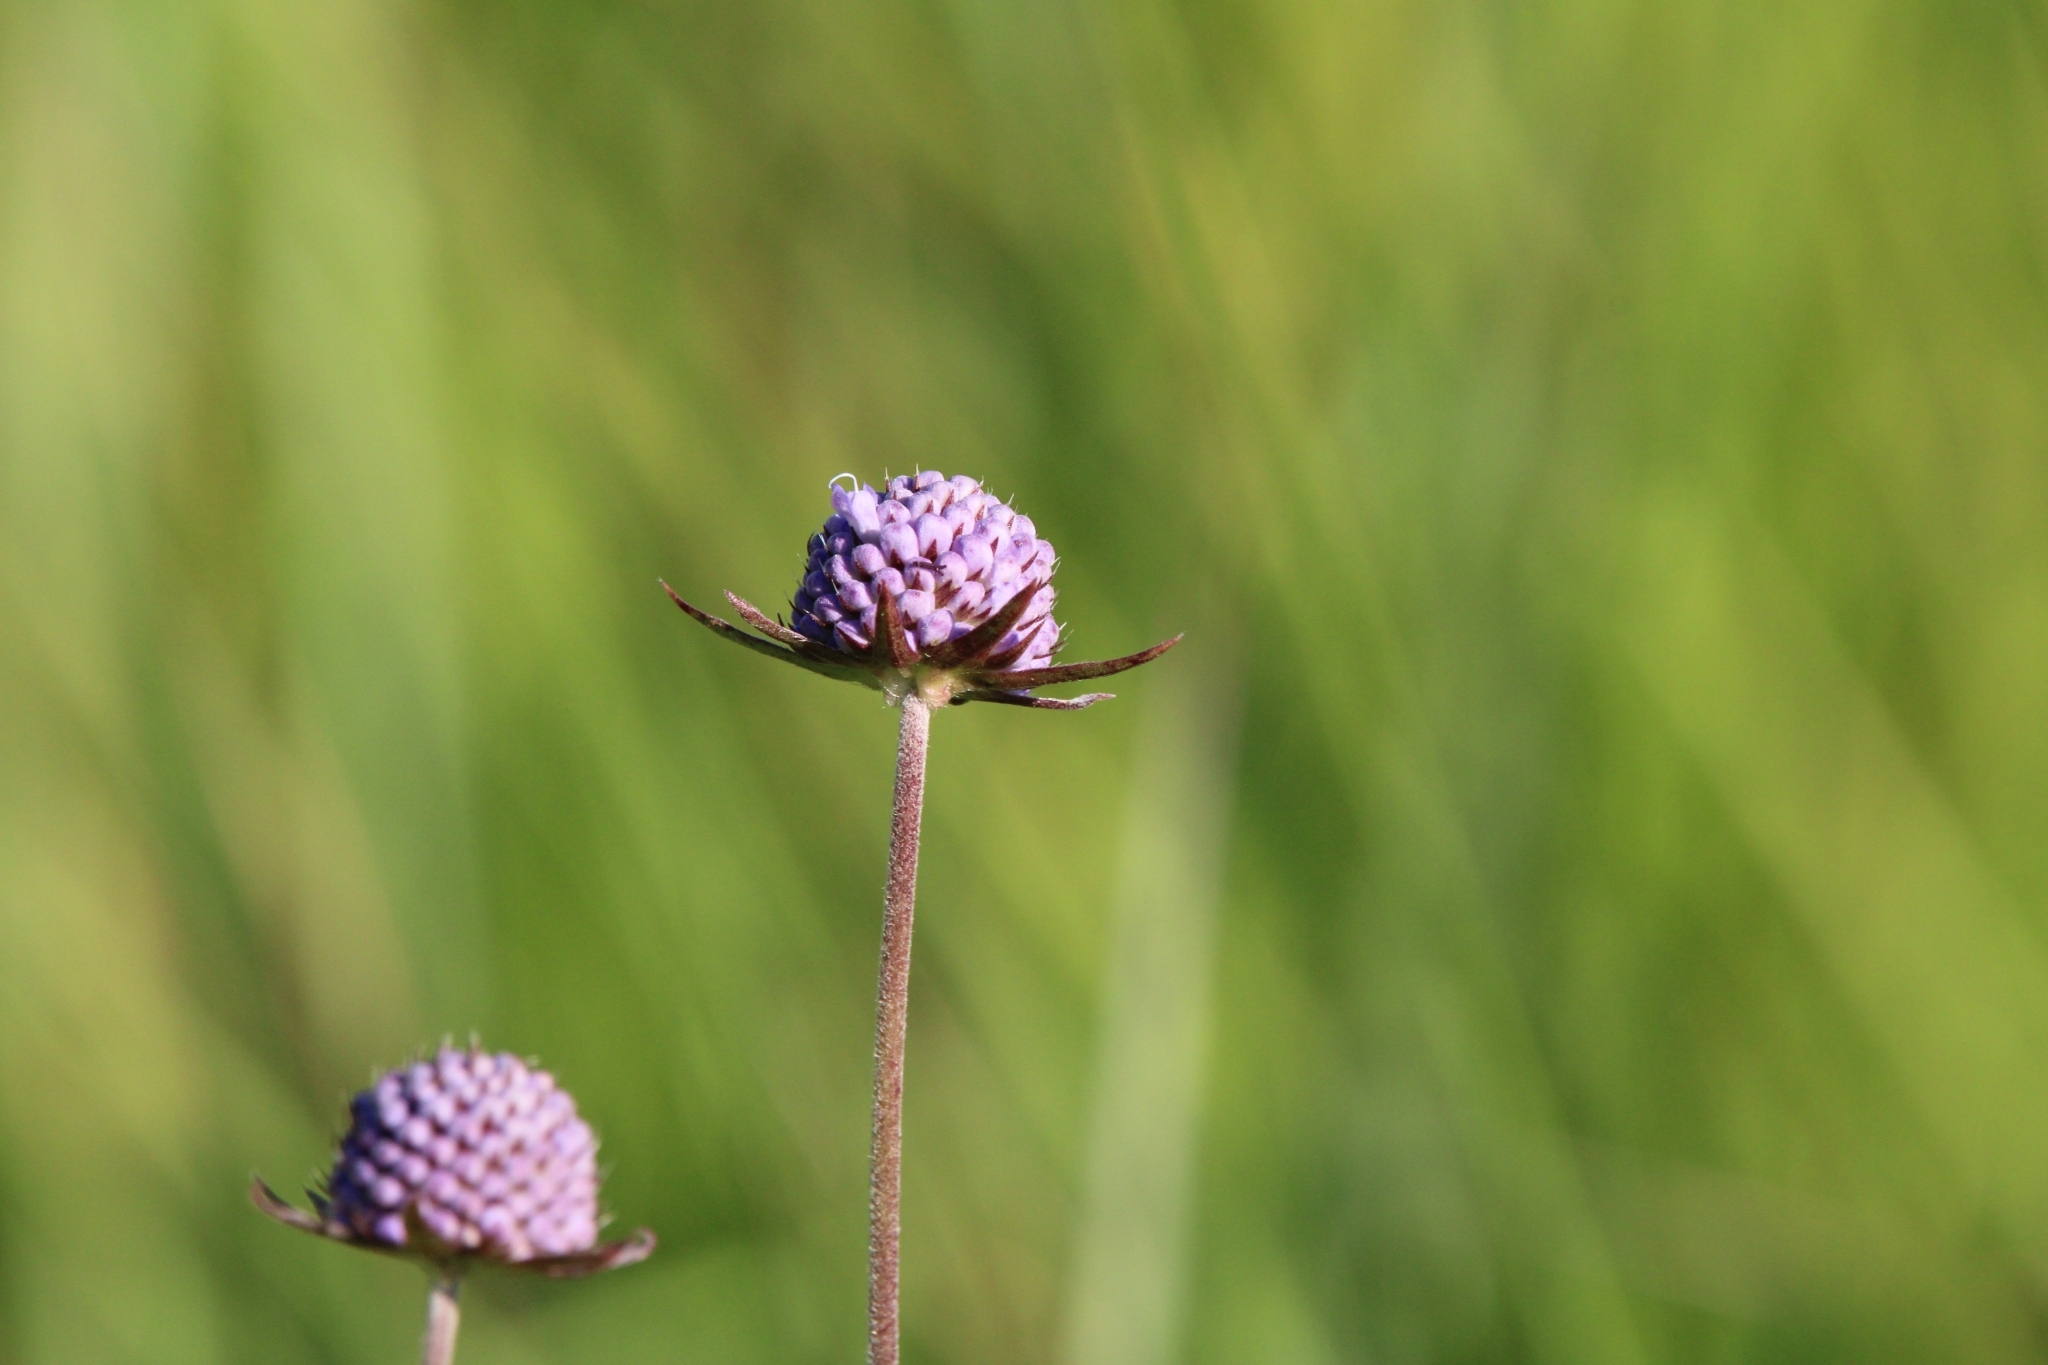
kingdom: Plantae
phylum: Tracheophyta
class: Magnoliopsida
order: Dipsacales
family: Caprifoliaceae
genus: Succisa
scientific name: Succisa pratensis
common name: Devil's-bit
